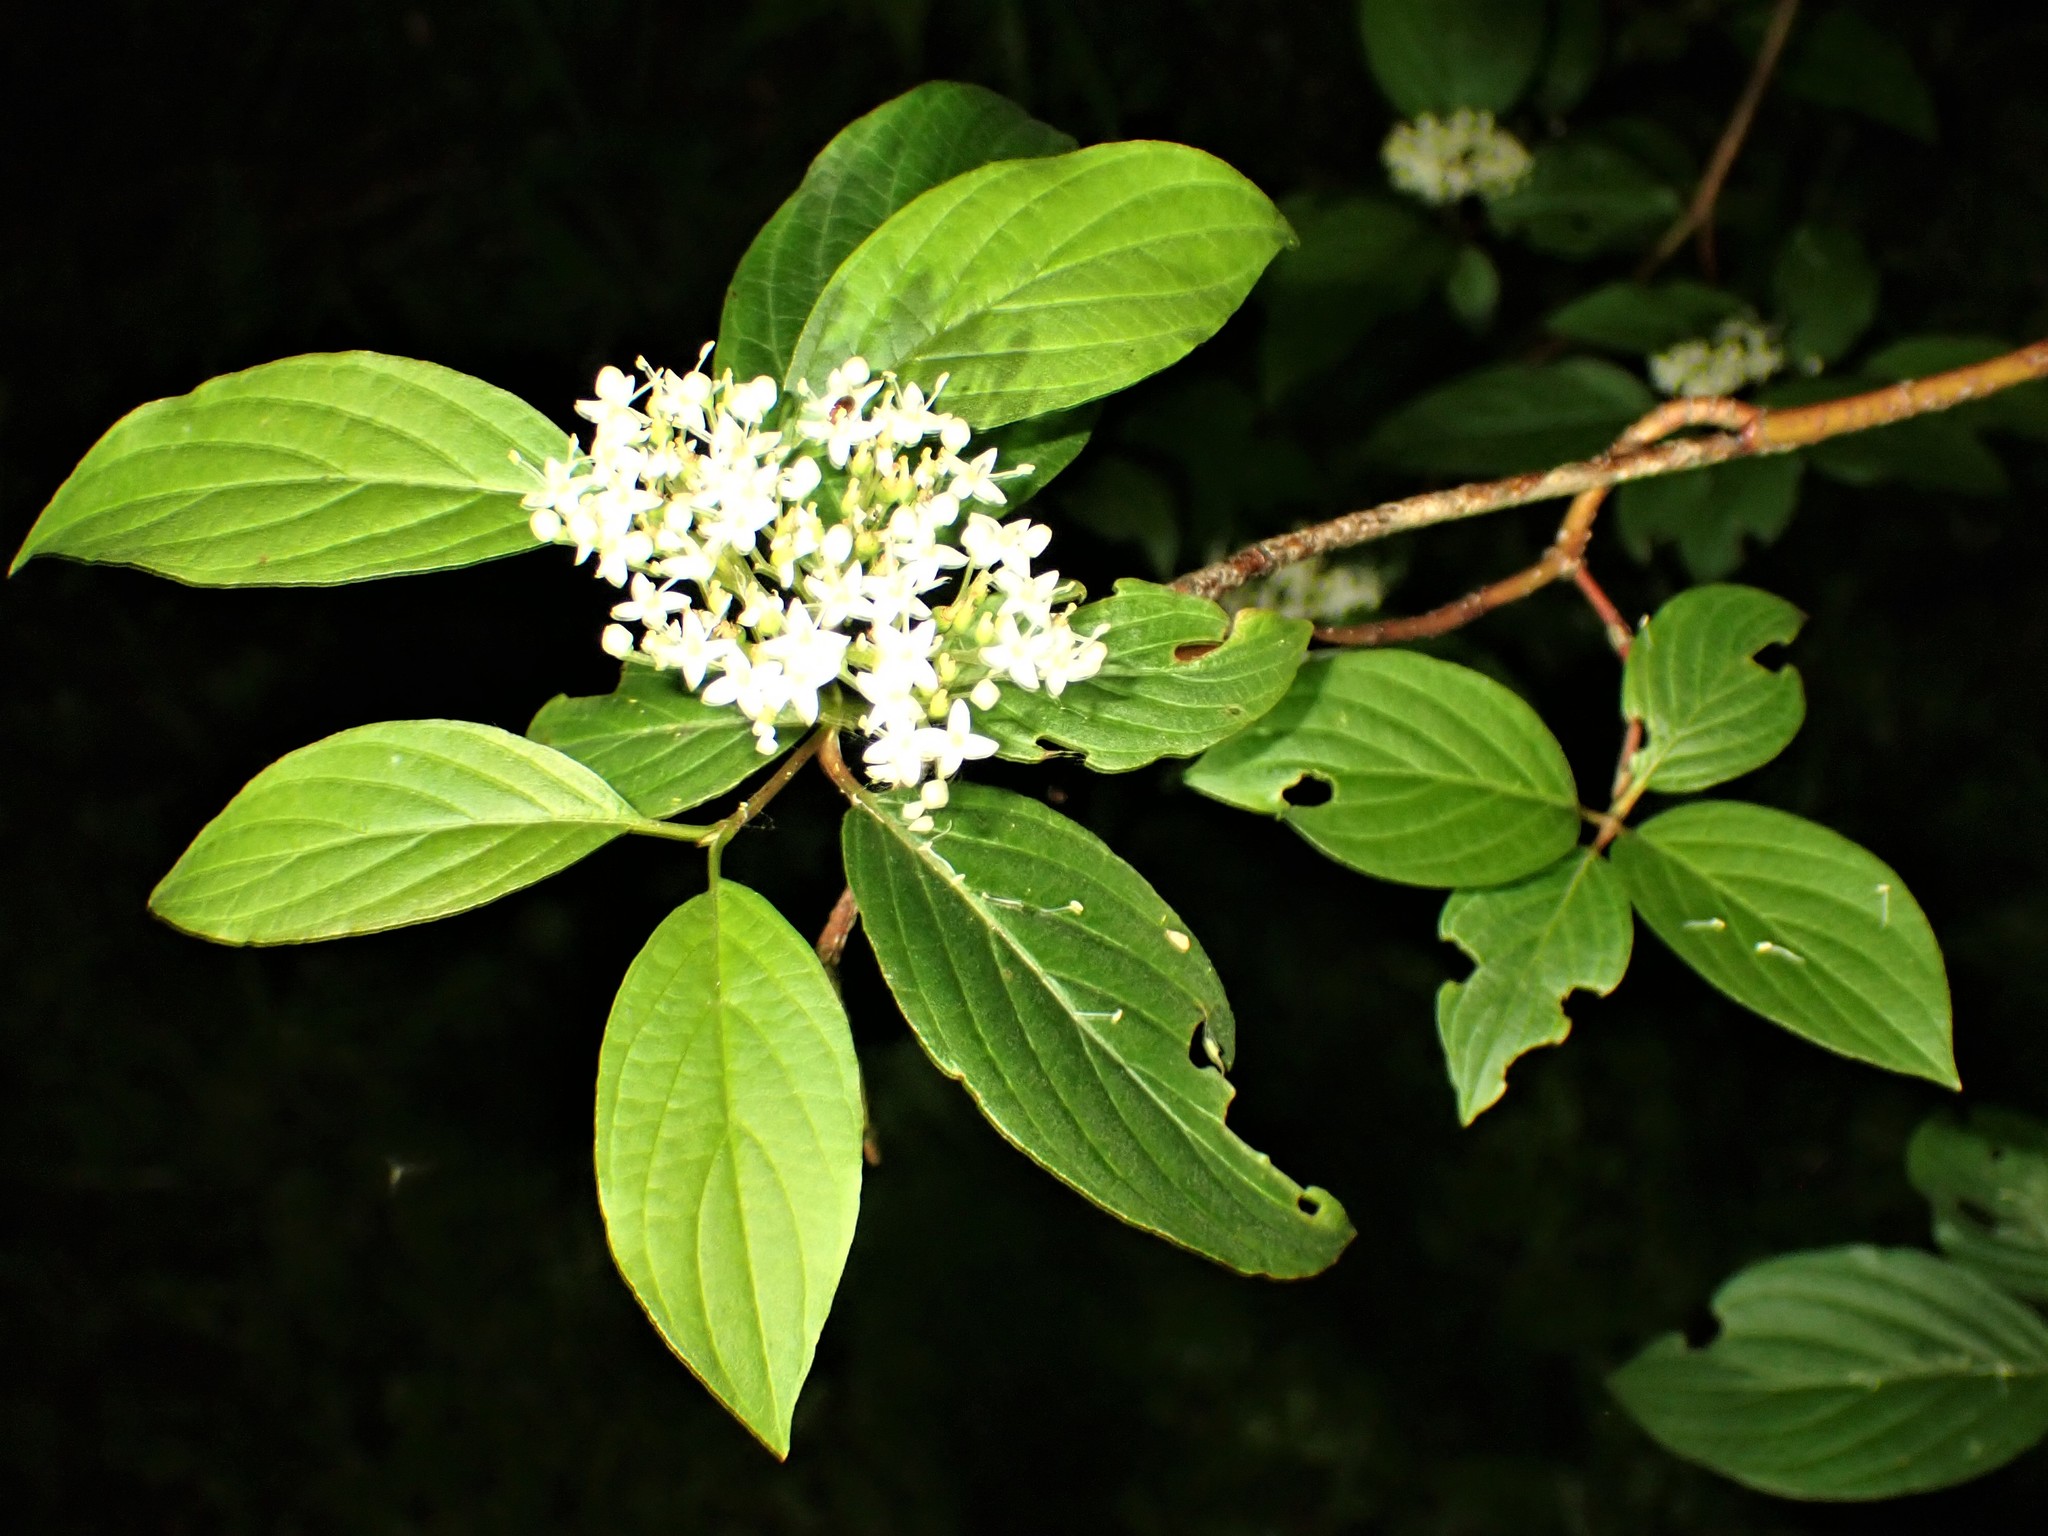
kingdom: Plantae
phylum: Tracheophyta
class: Magnoliopsida
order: Cornales
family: Cornaceae
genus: Cornus
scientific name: Cornus sericea
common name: Red-osier dogwood
